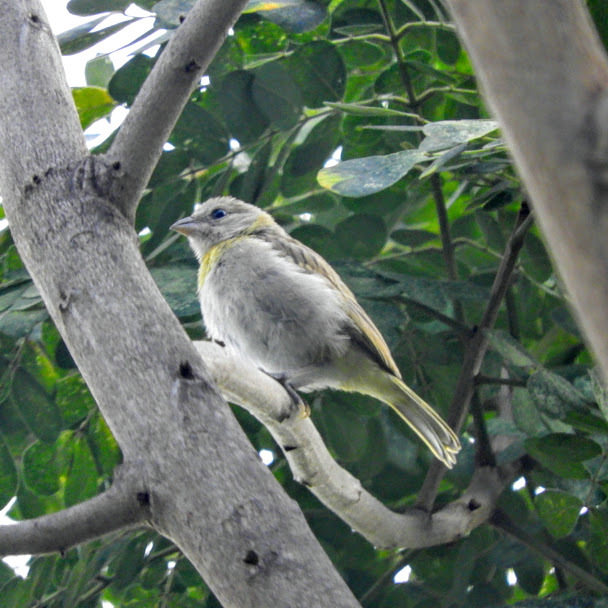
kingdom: Animalia
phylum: Chordata
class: Aves
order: Passeriformes
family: Thraupidae
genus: Sicalis
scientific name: Sicalis flaveola
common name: Saffron finch
